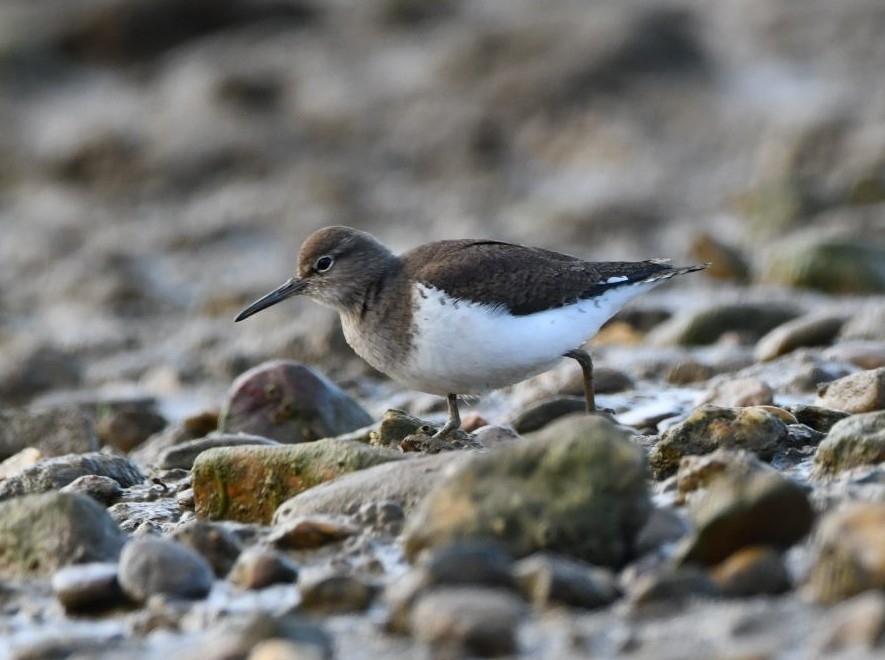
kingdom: Animalia
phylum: Chordata
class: Aves
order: Charadriiformes
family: Scolopacidae
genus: Actitis
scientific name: Actitis hypoleucos
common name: Common sandpiper
